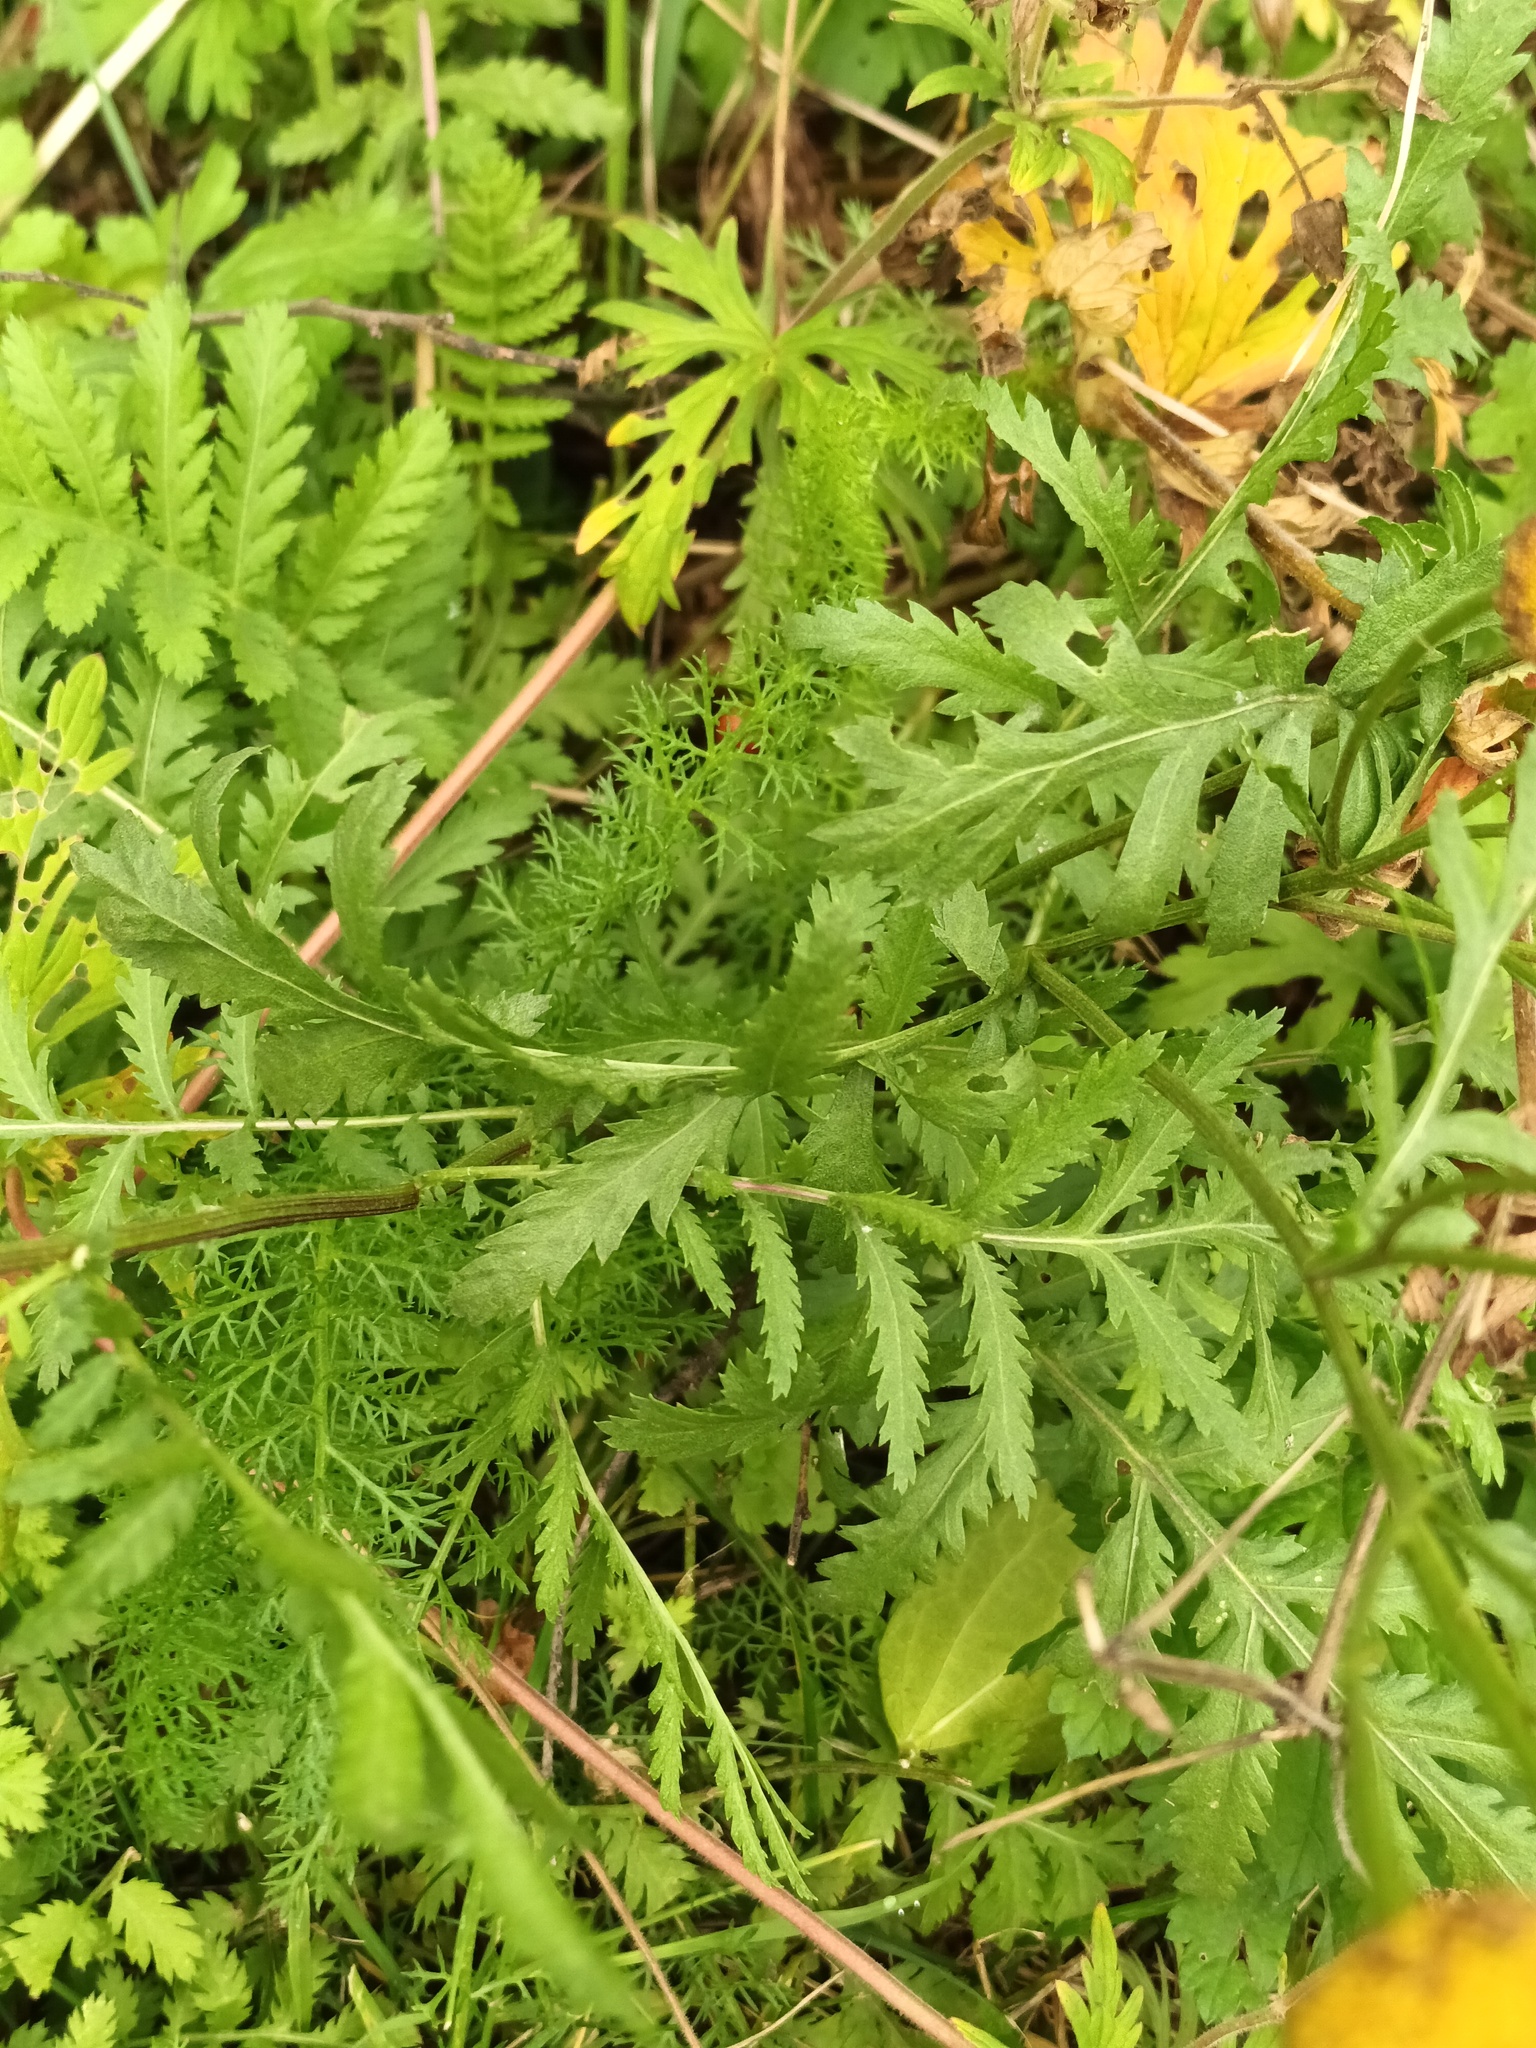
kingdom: Plantae
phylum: Tracheophyta
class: Magnoliopsida
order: Asterales
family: Asteraceae
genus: Tanacetum
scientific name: Tanacetum vulgare
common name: Common tansy
